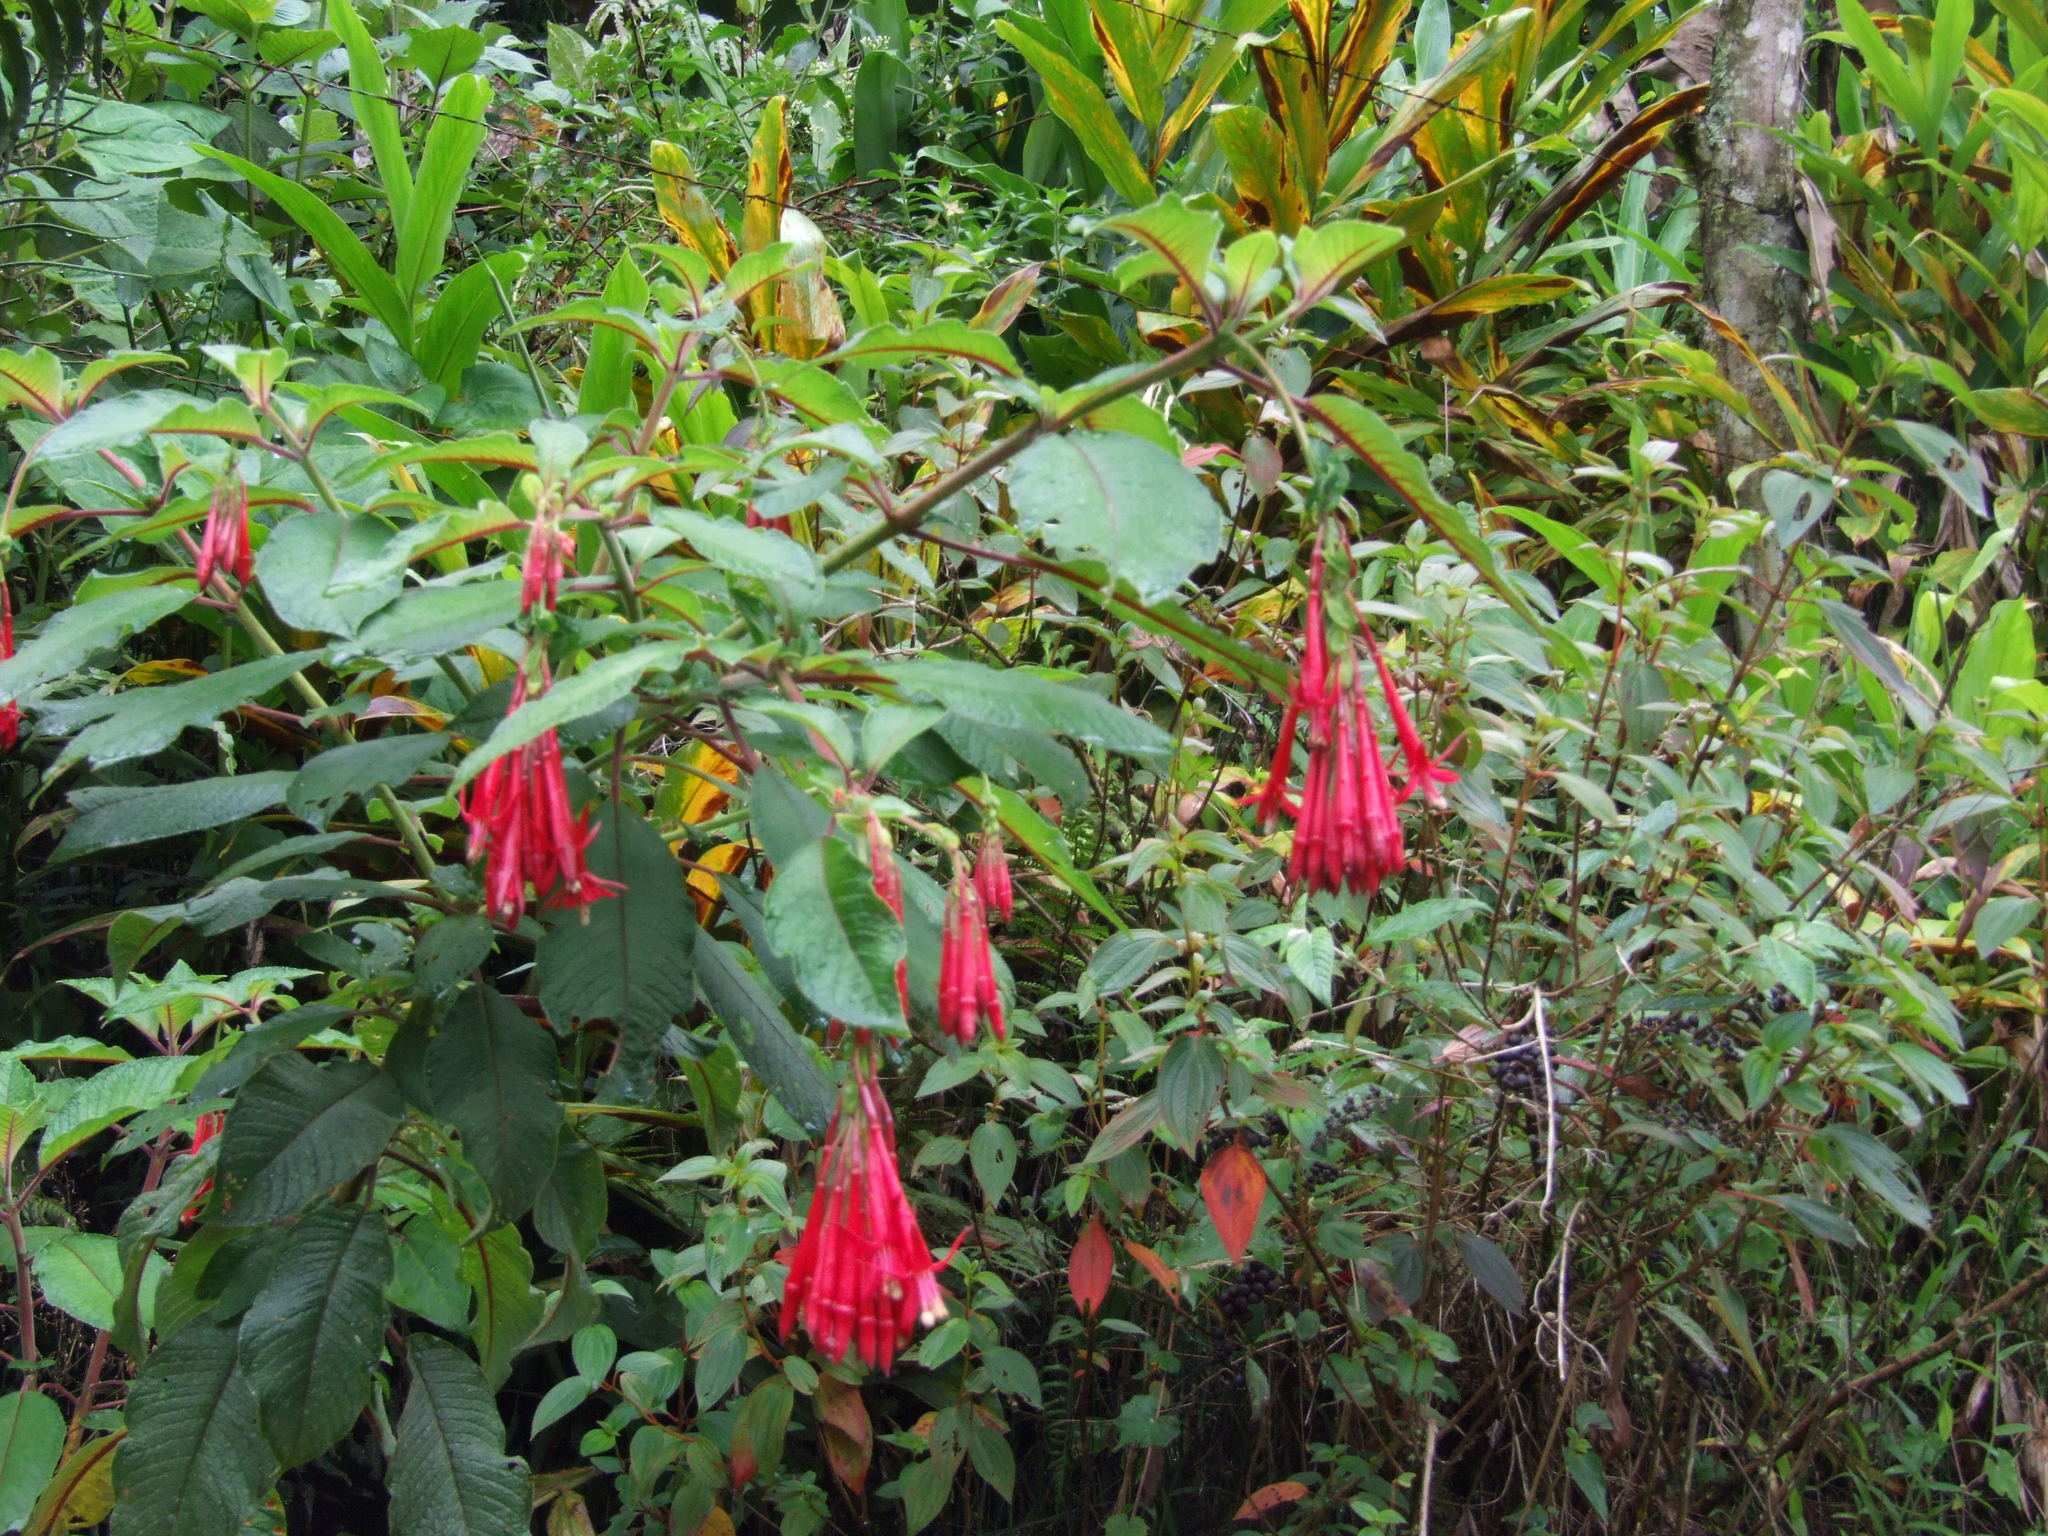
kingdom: Plantae
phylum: Tracheophyta
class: Magnoliopsida
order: Myrtales
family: Onagraceae
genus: Fuchsia
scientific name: Fuchsia boliviana
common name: Bolivian fuchsia
